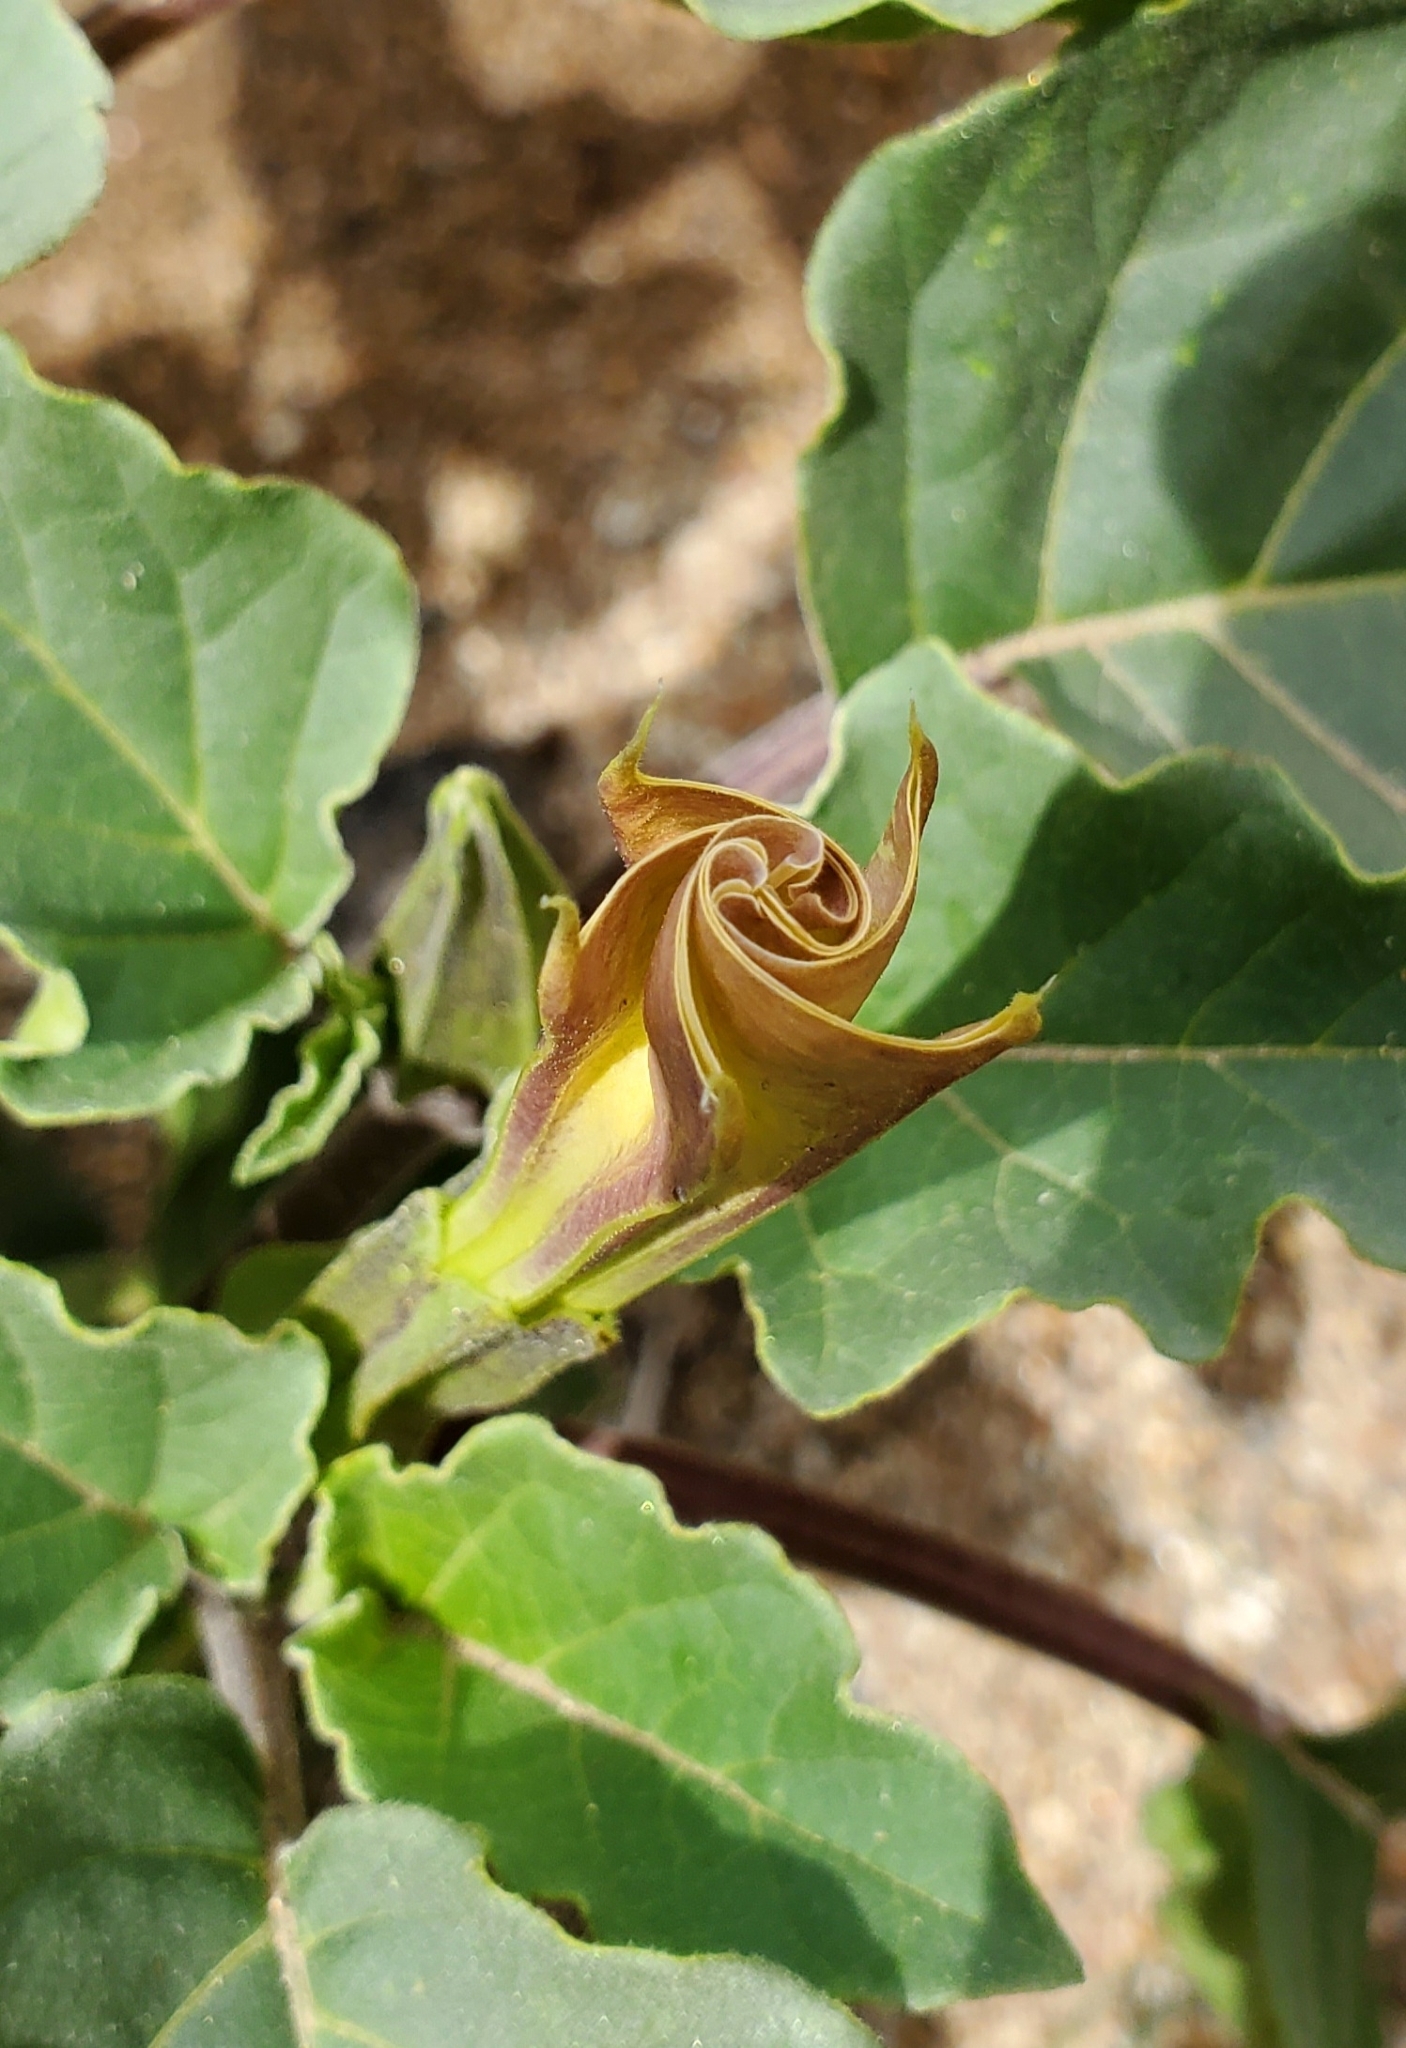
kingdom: Plantae
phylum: Tracheophyta
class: Magnoliopsida
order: Solanales
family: Solanaceae
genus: Datura
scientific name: Datura discolor
